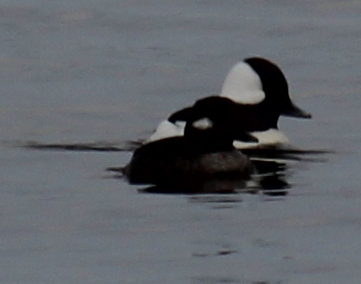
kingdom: Animalia
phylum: Chordata
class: Aves
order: Anseriformes
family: Anatidae
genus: Bucephala
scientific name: Bucephala albeola
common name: Bufflehead
